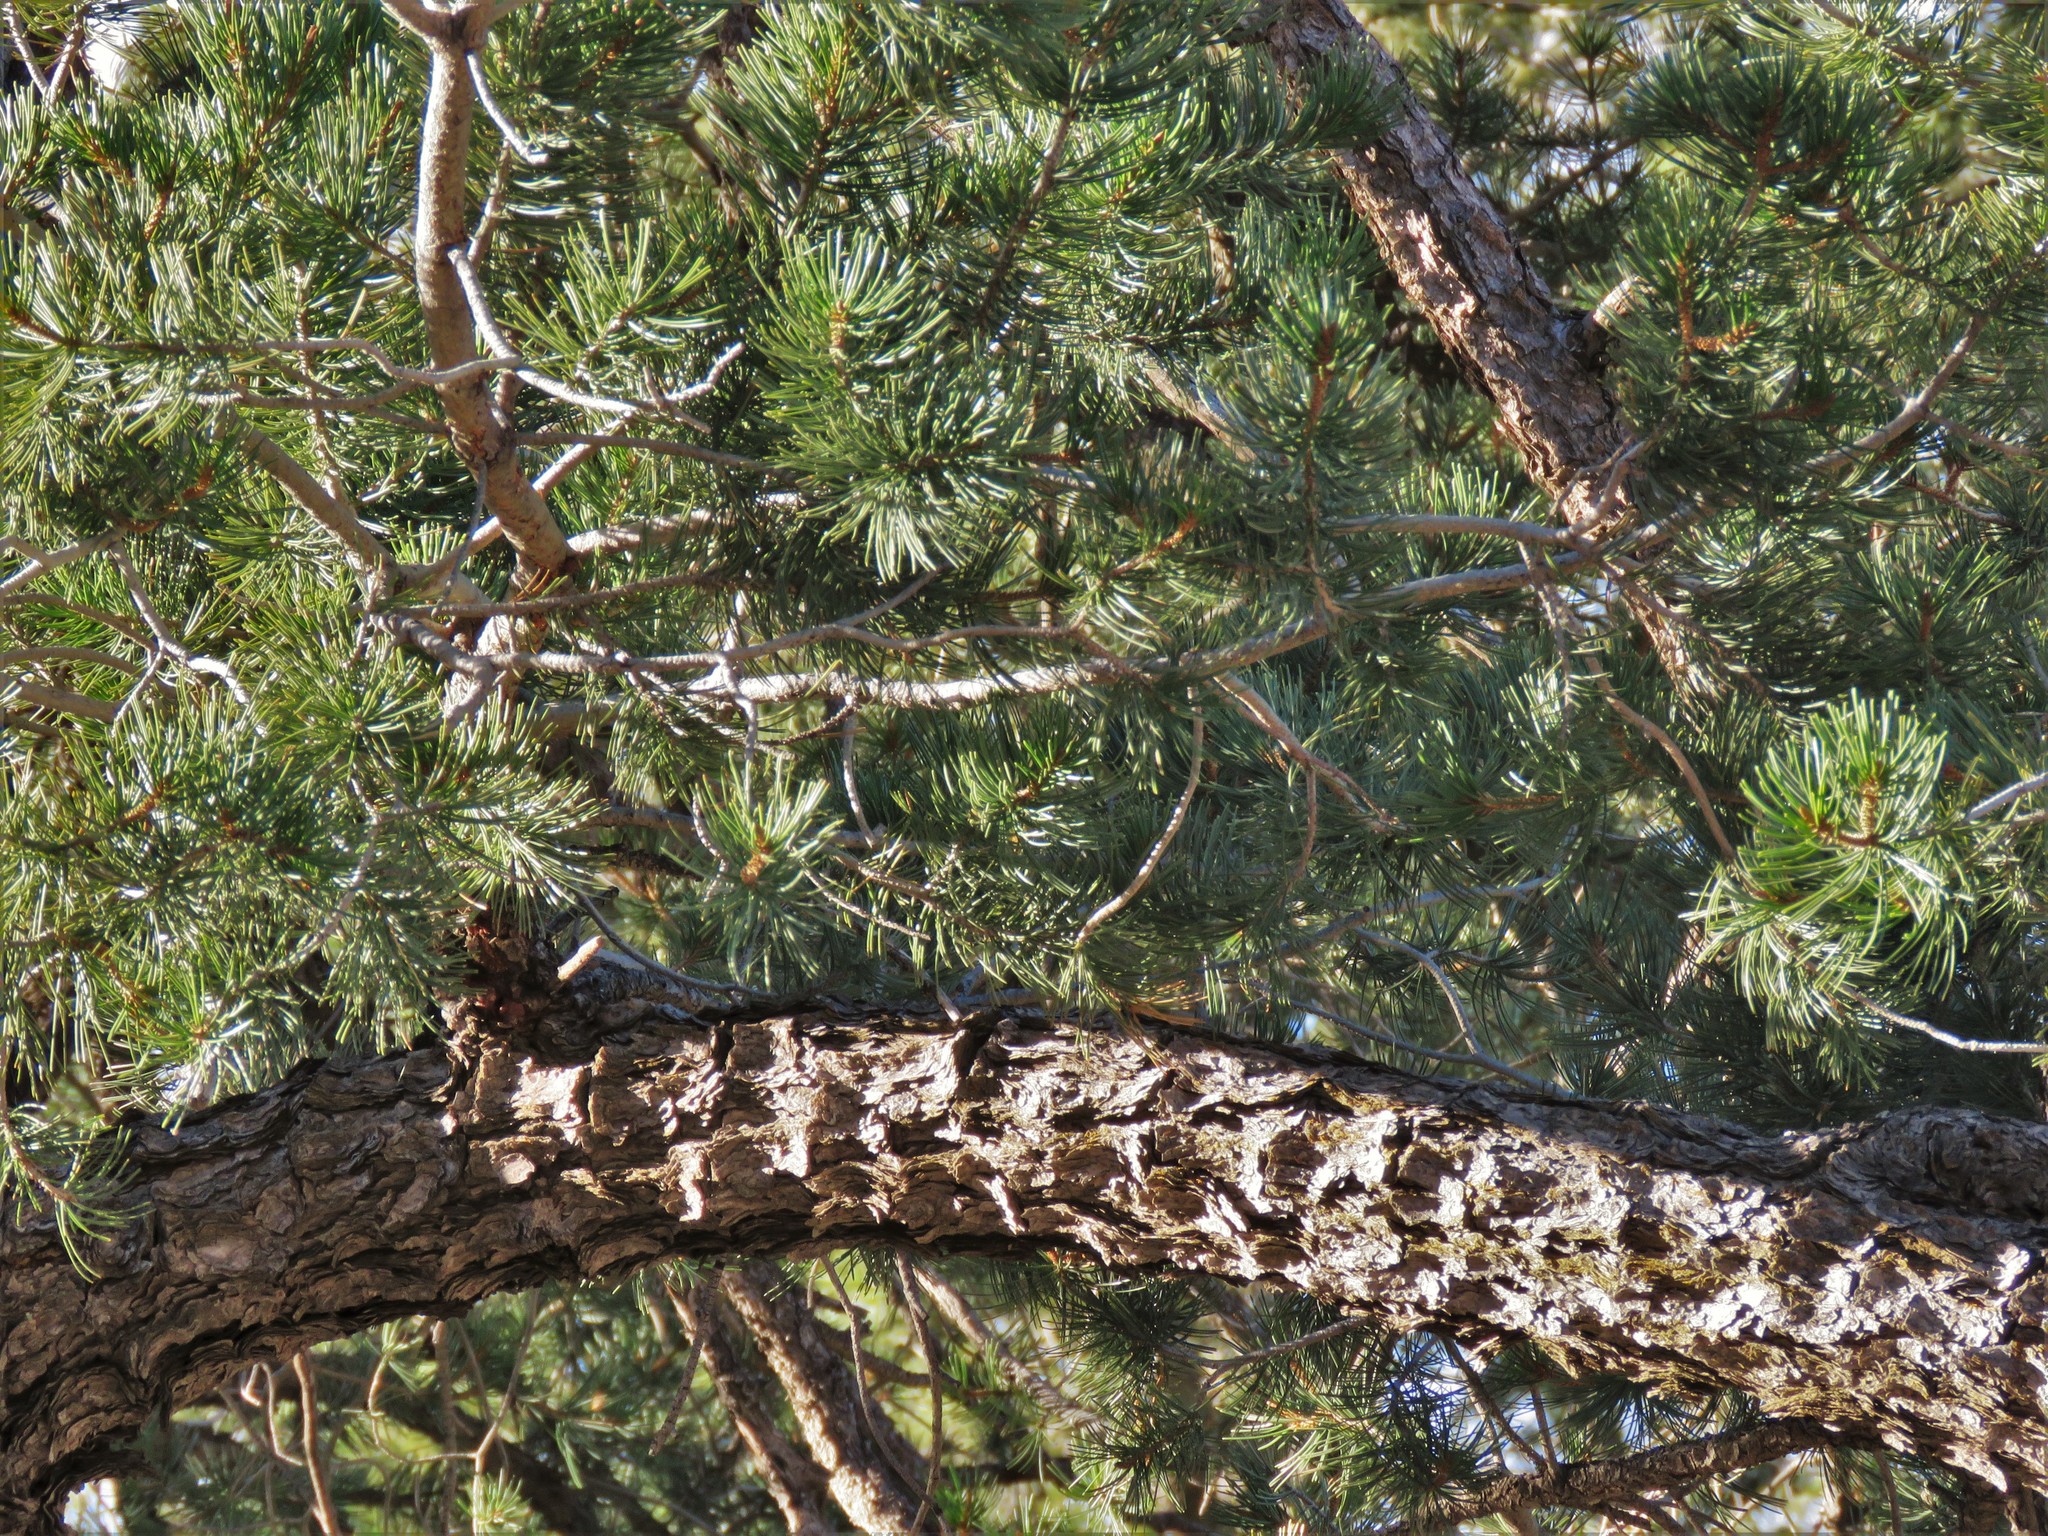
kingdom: Plantae
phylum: Tracheophyta
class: Pinopsida
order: Pinales
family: Pinaceae
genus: Pinus
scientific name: Pinus cembroides
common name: Mexican nut pine
